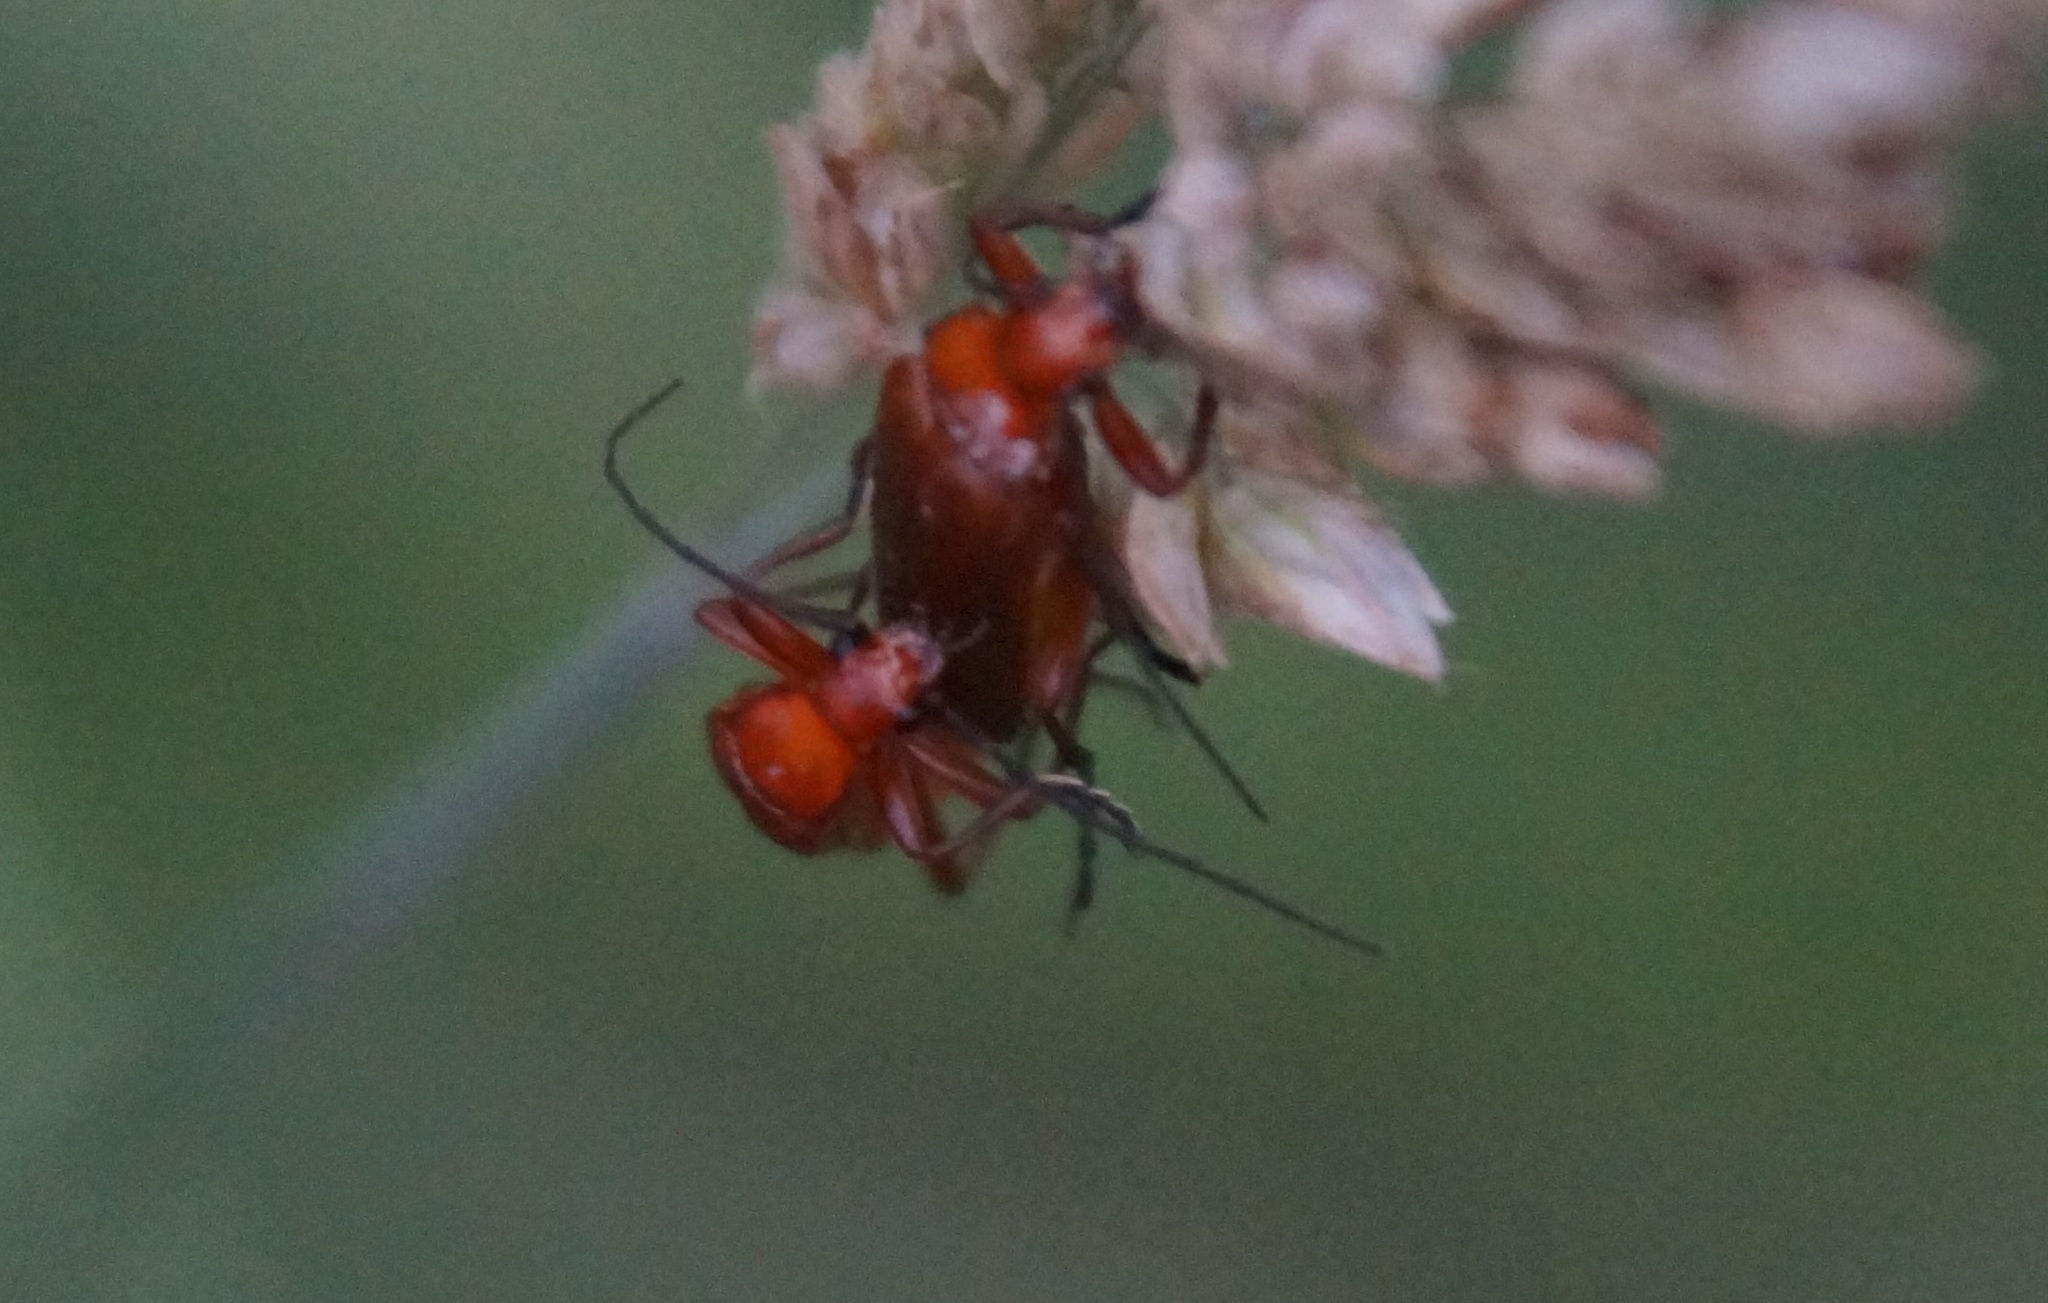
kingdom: Animalia
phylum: Arthropoda
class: Insecta
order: Coleoptera
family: Cantharidae
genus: Rhagonycha
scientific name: Rhagonycha fulva
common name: Common red soldier beetle
